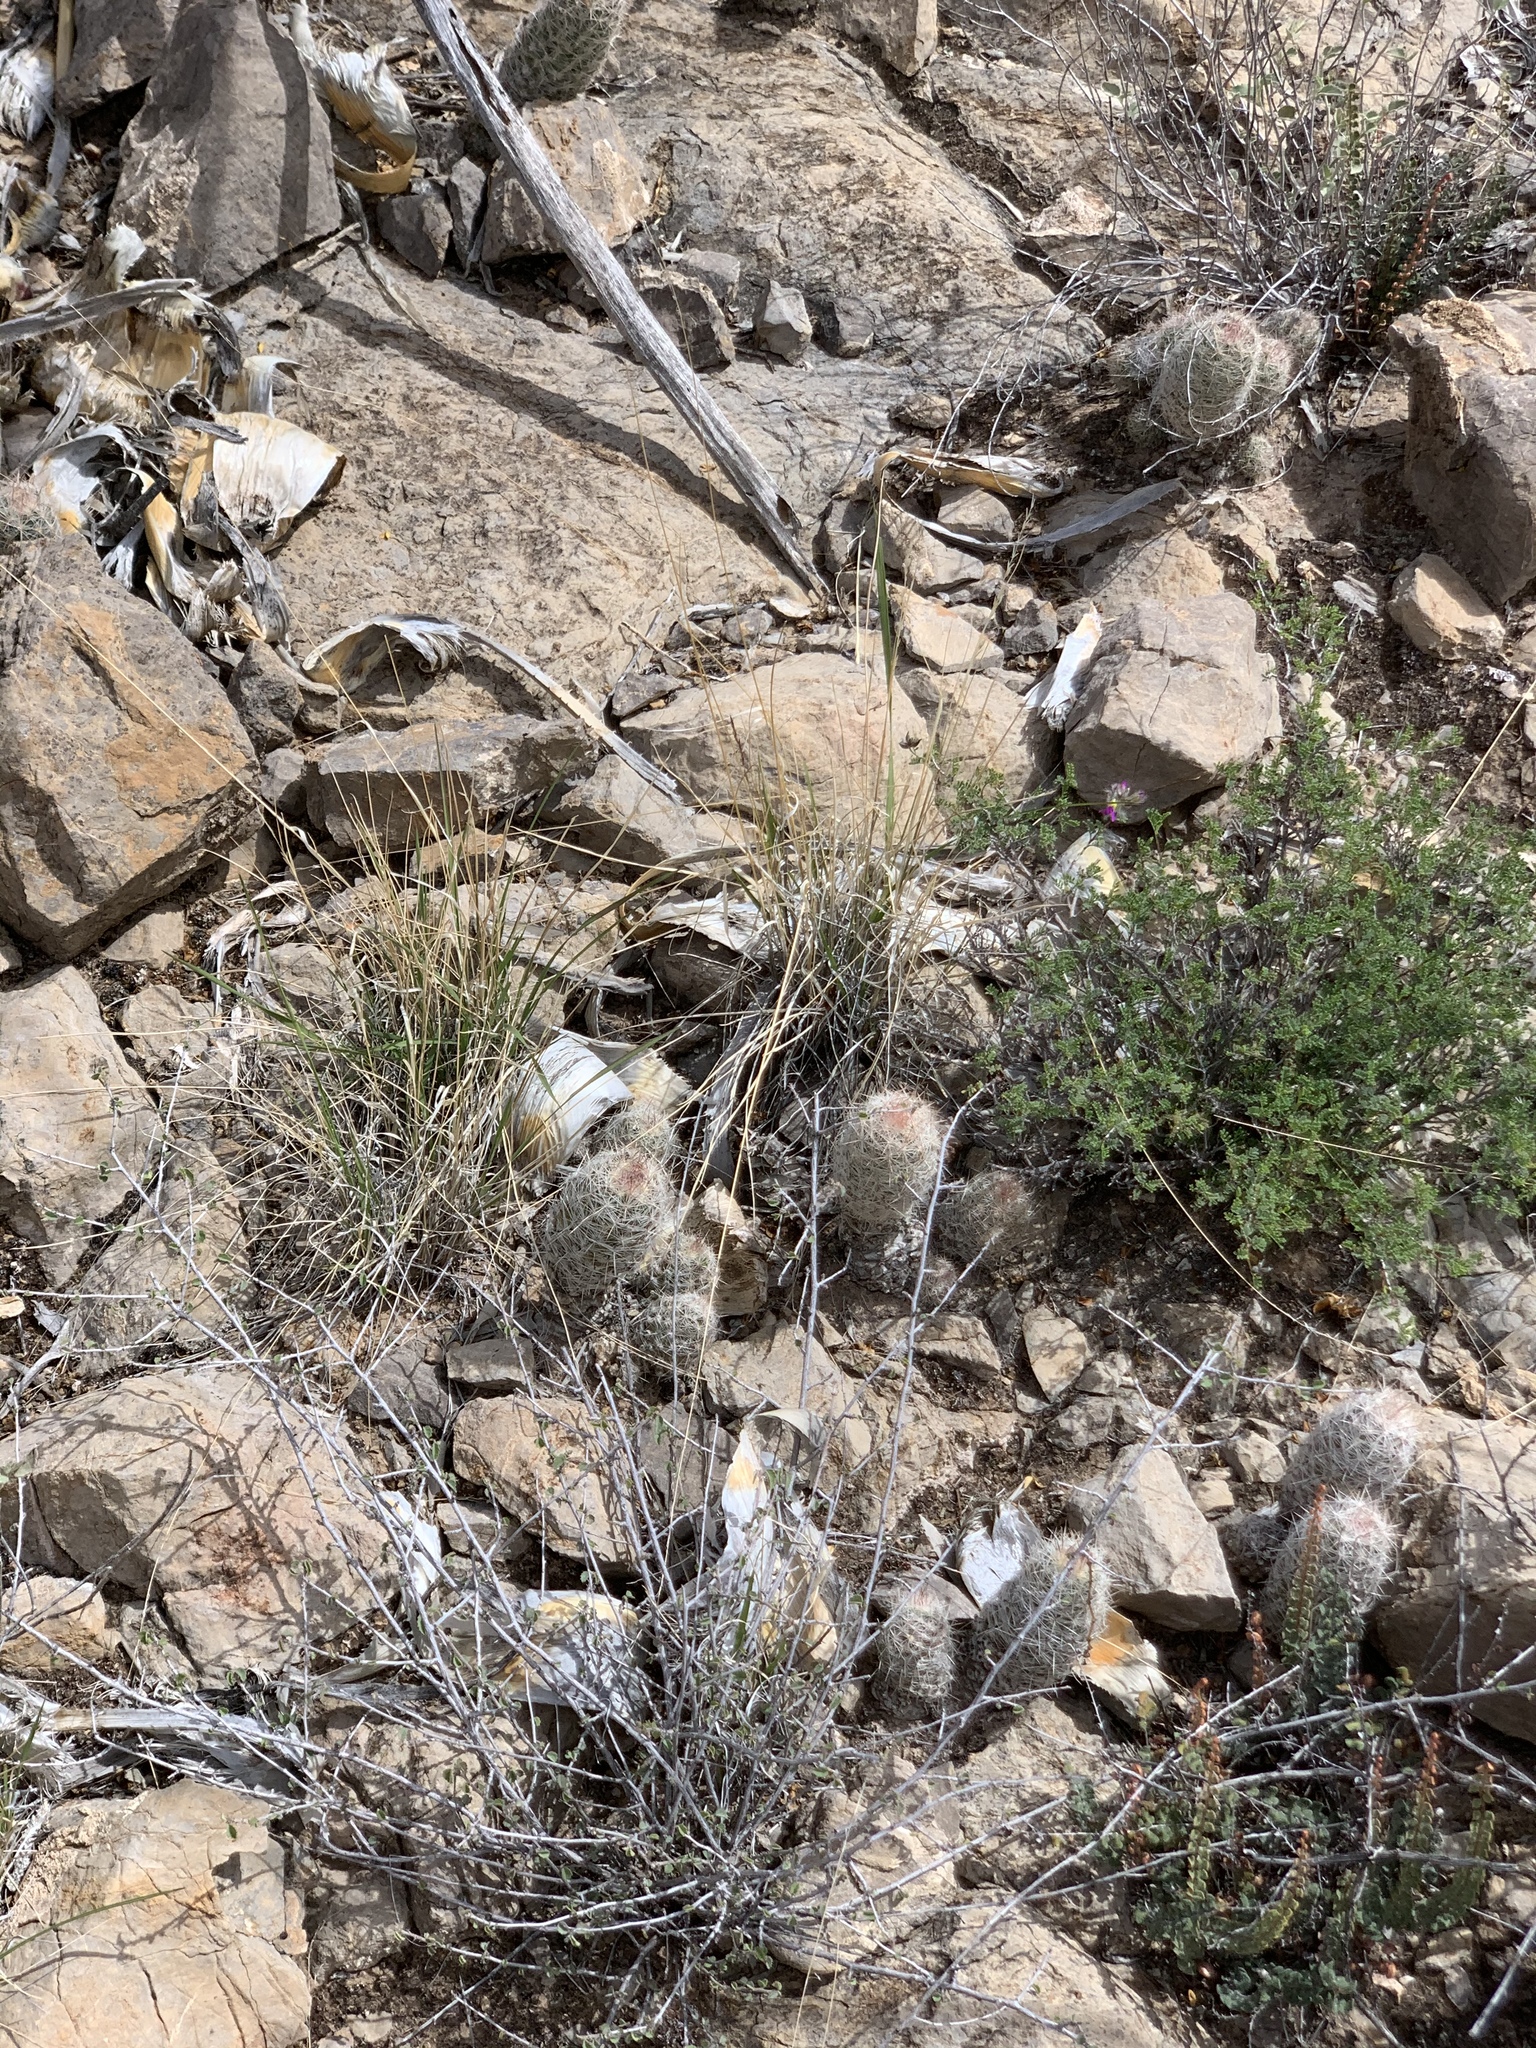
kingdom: Plantae
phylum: Tracheophyta
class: Magnoliopsida
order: Caryophyllales
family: Cactaceae
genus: Pelecyphora
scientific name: Pelecyphora tuberculosa
